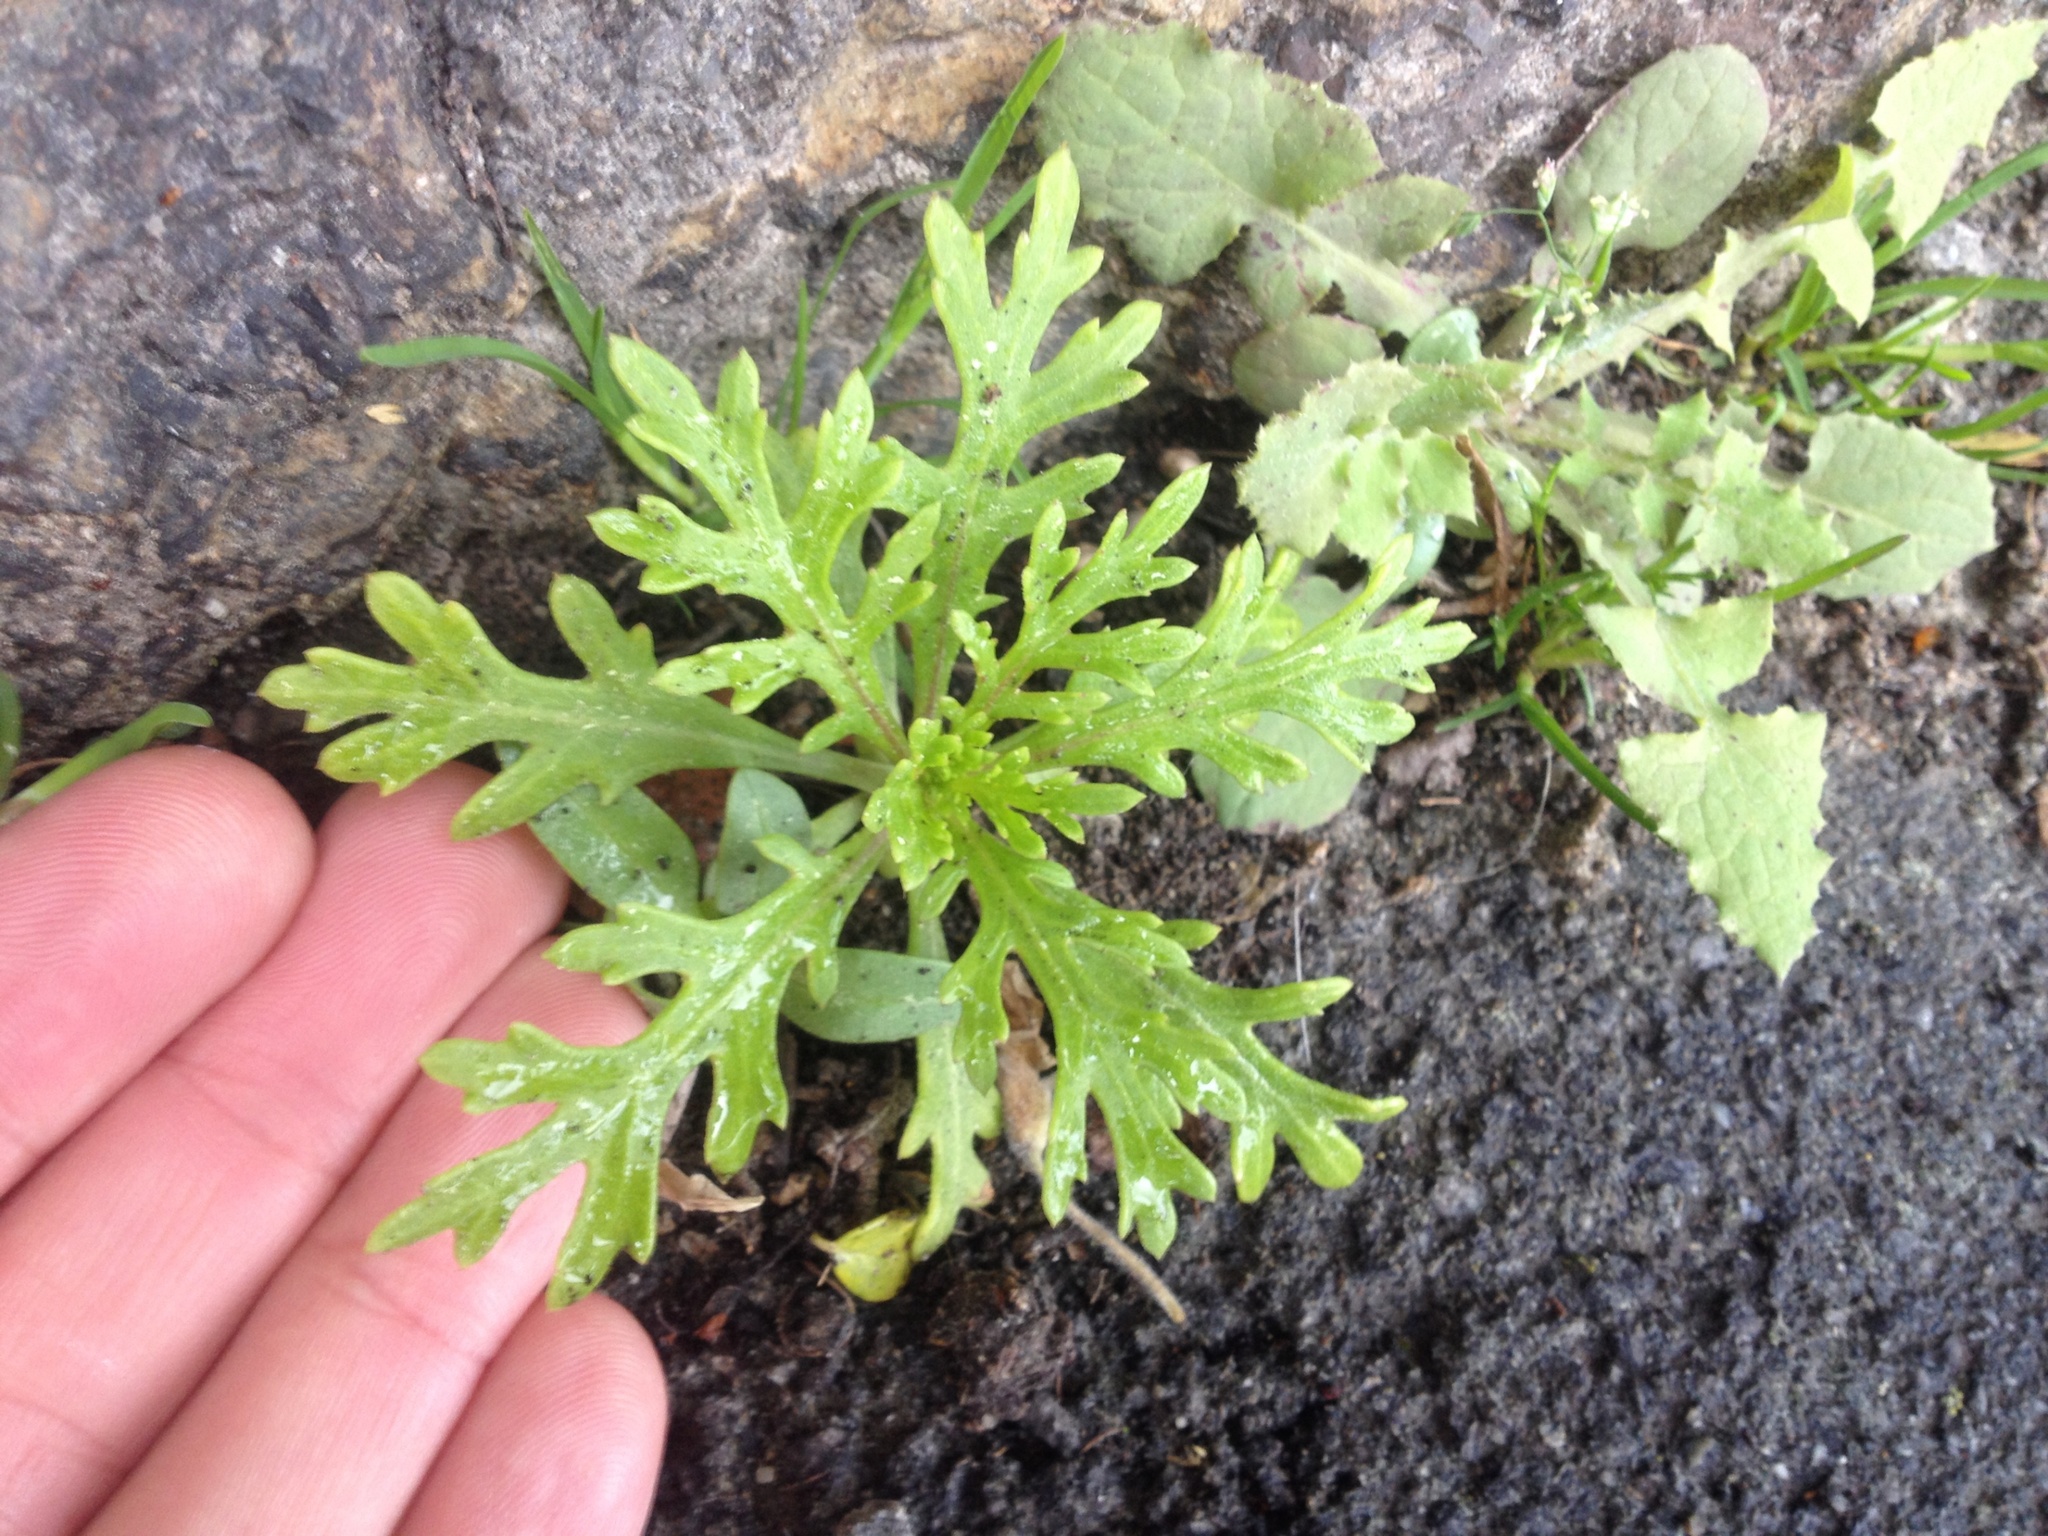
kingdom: Plantae
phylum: Tracheophyta
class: Magnoliopsida
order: Asterales
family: Asteraceae
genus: Euryops
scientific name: Euryops chrysanthemoides
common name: Bull's eye
